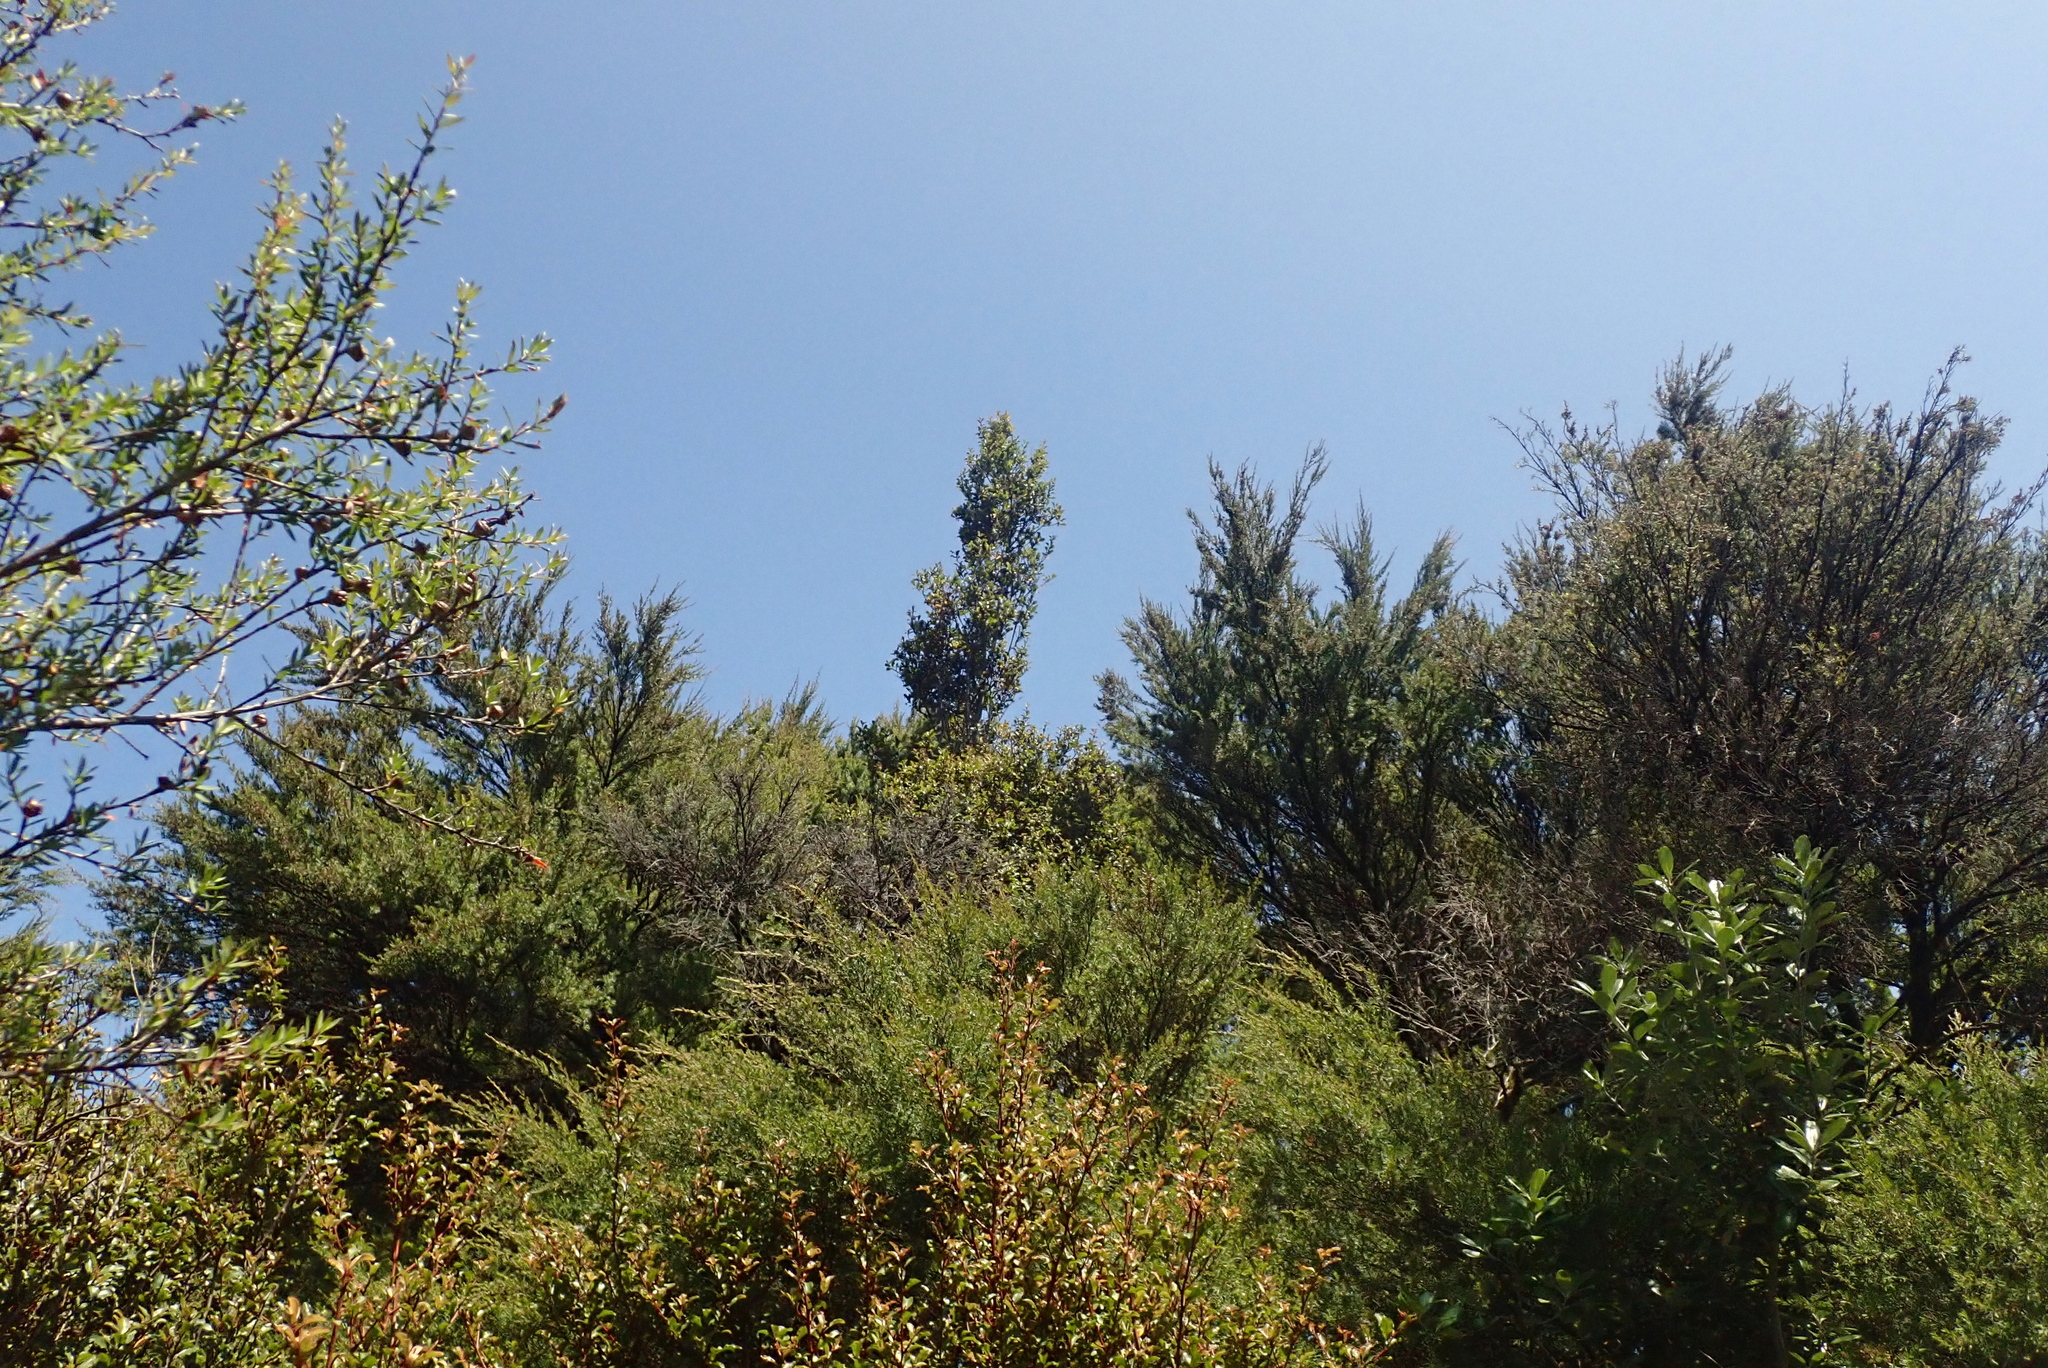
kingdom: Plantae
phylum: Tracheophyta
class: Magnoliopsida
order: Ericales
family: Primulaceae
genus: Myrsine
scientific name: Myrsine australis
